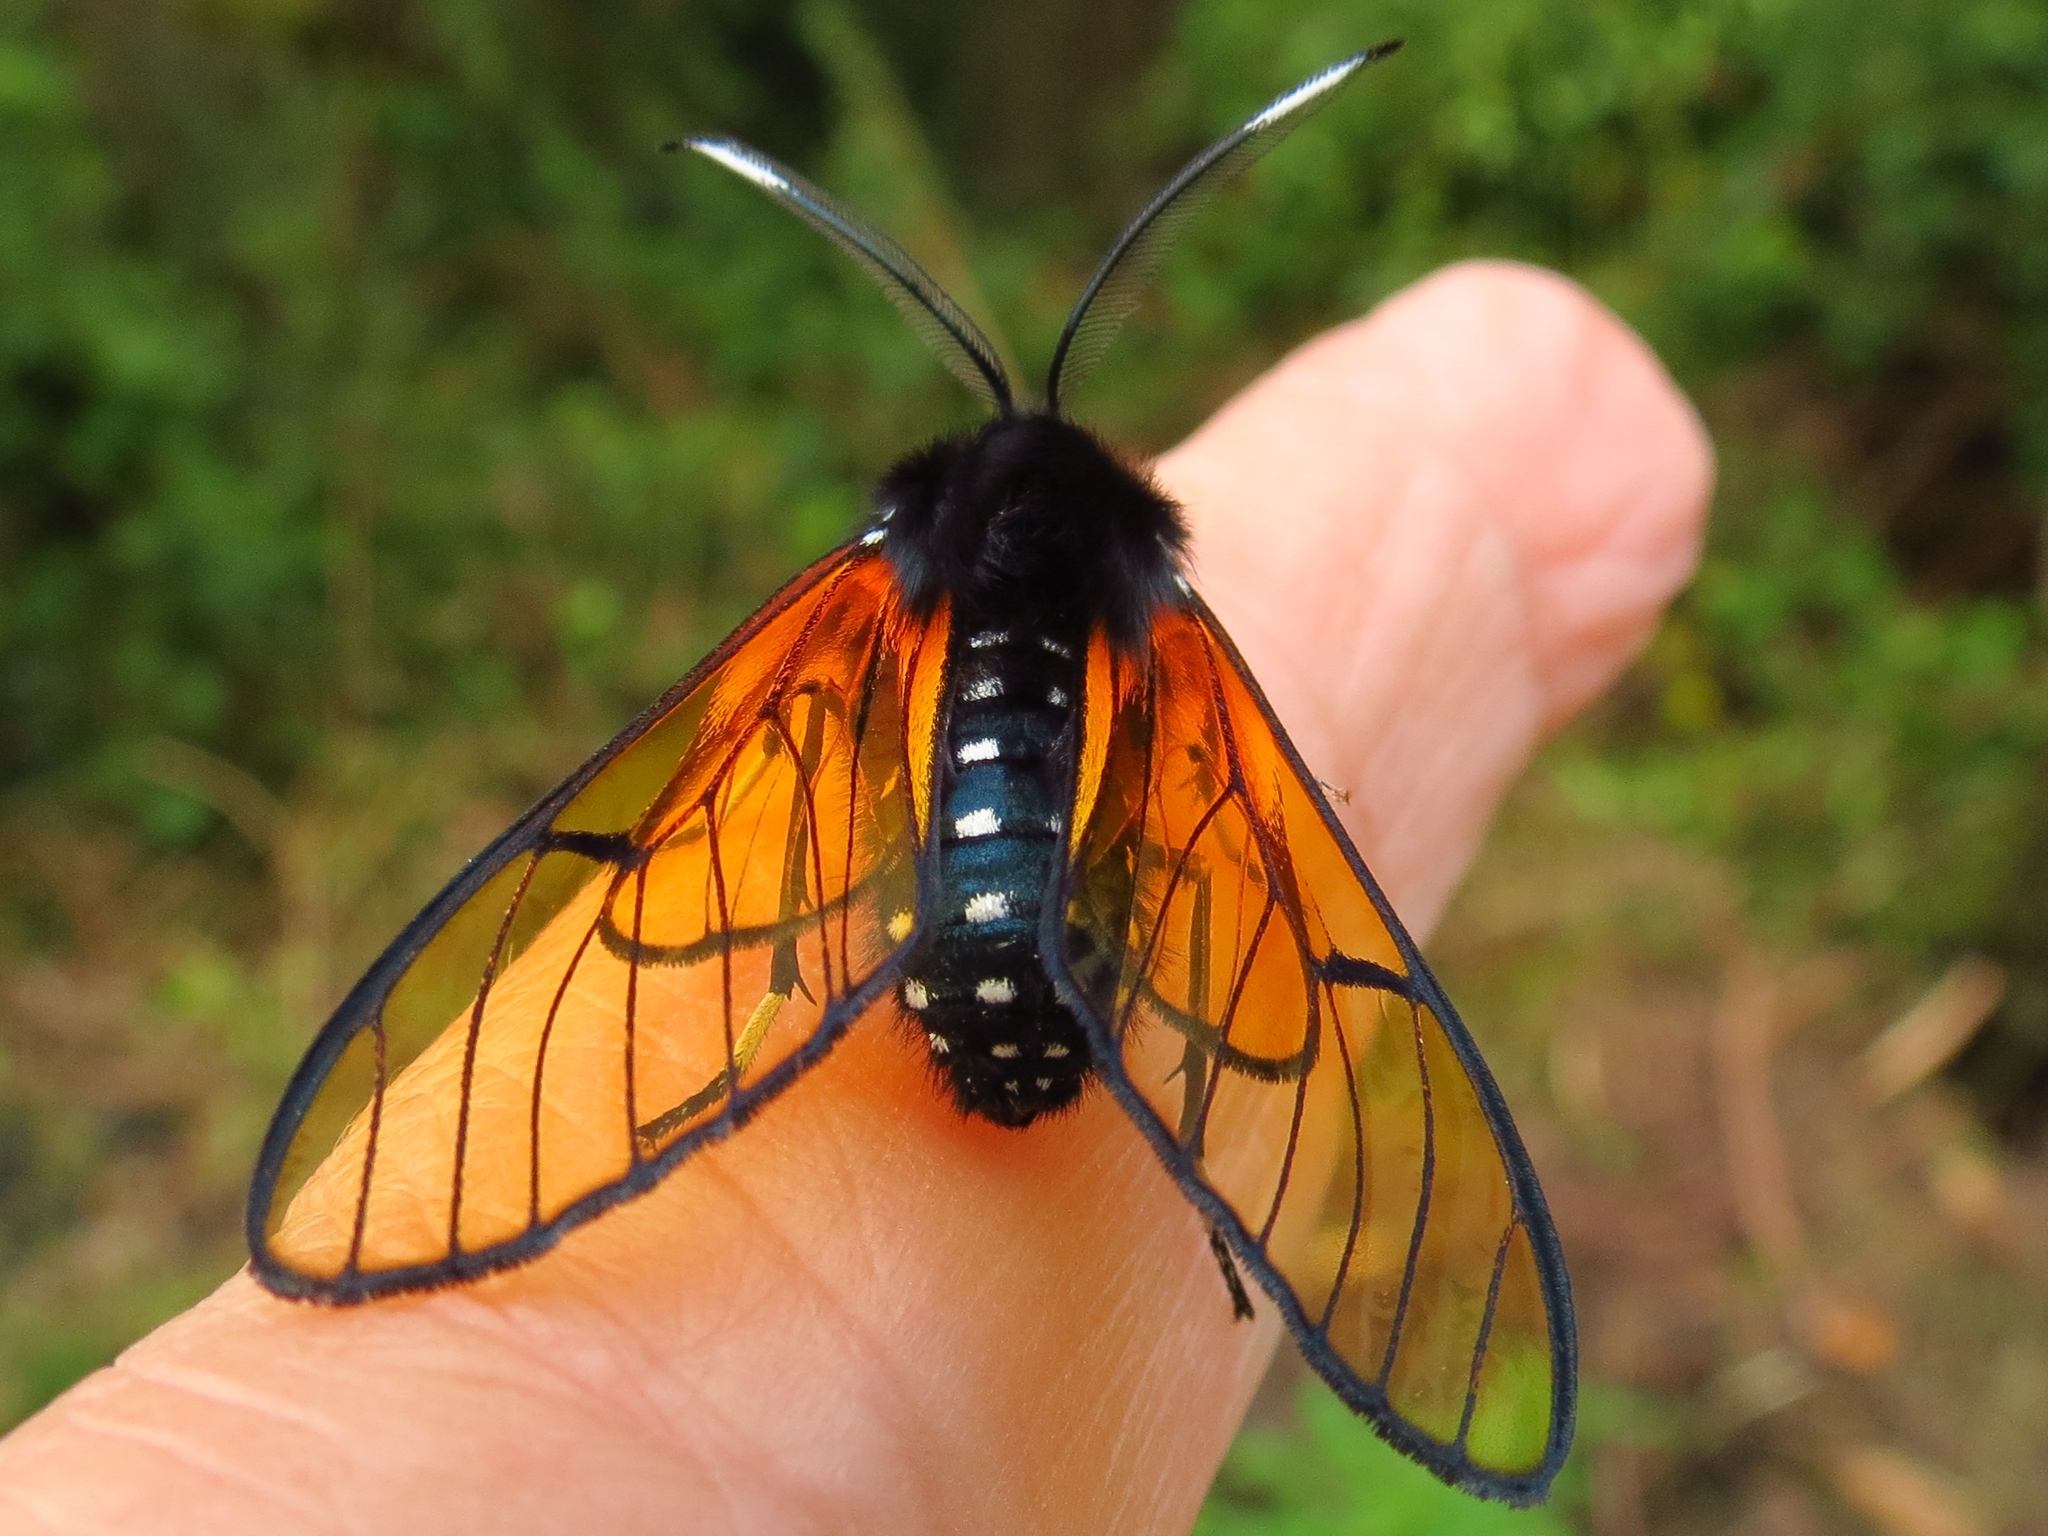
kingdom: Animalia
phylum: Arthropoda
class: Insecta
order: Lepidoptera
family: Erebidae
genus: Dasysphinx
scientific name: Dasysphinx volatilis
